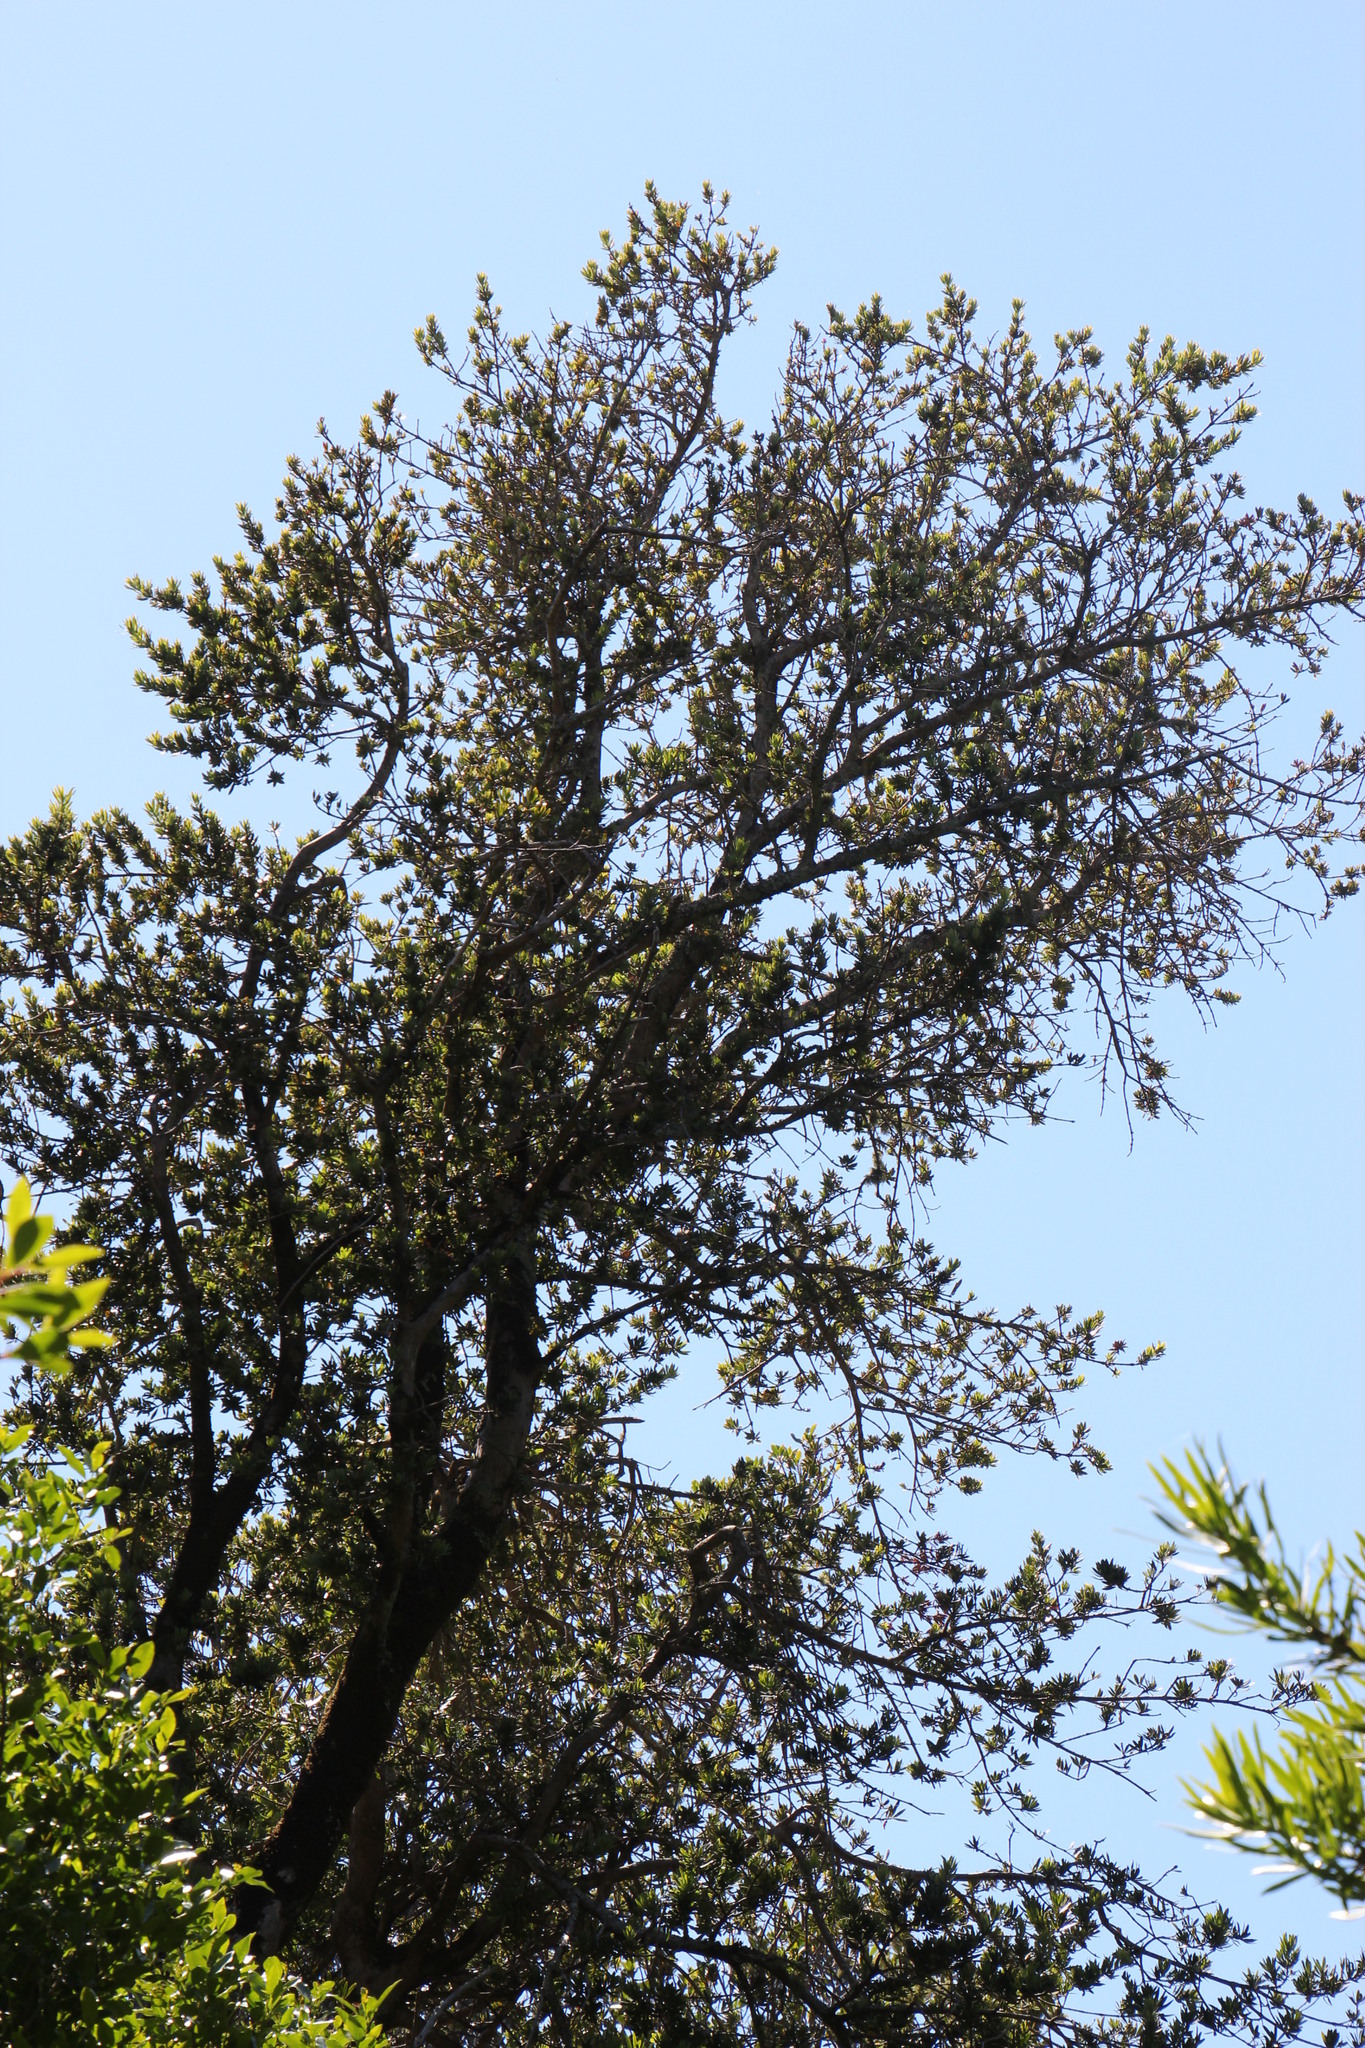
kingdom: Plantae
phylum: Tracheophyta
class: Pinopsida
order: Pinales
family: Podocarpaceae
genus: Podocarpus
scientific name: Podocarpus latifolius
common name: True yellowwood
